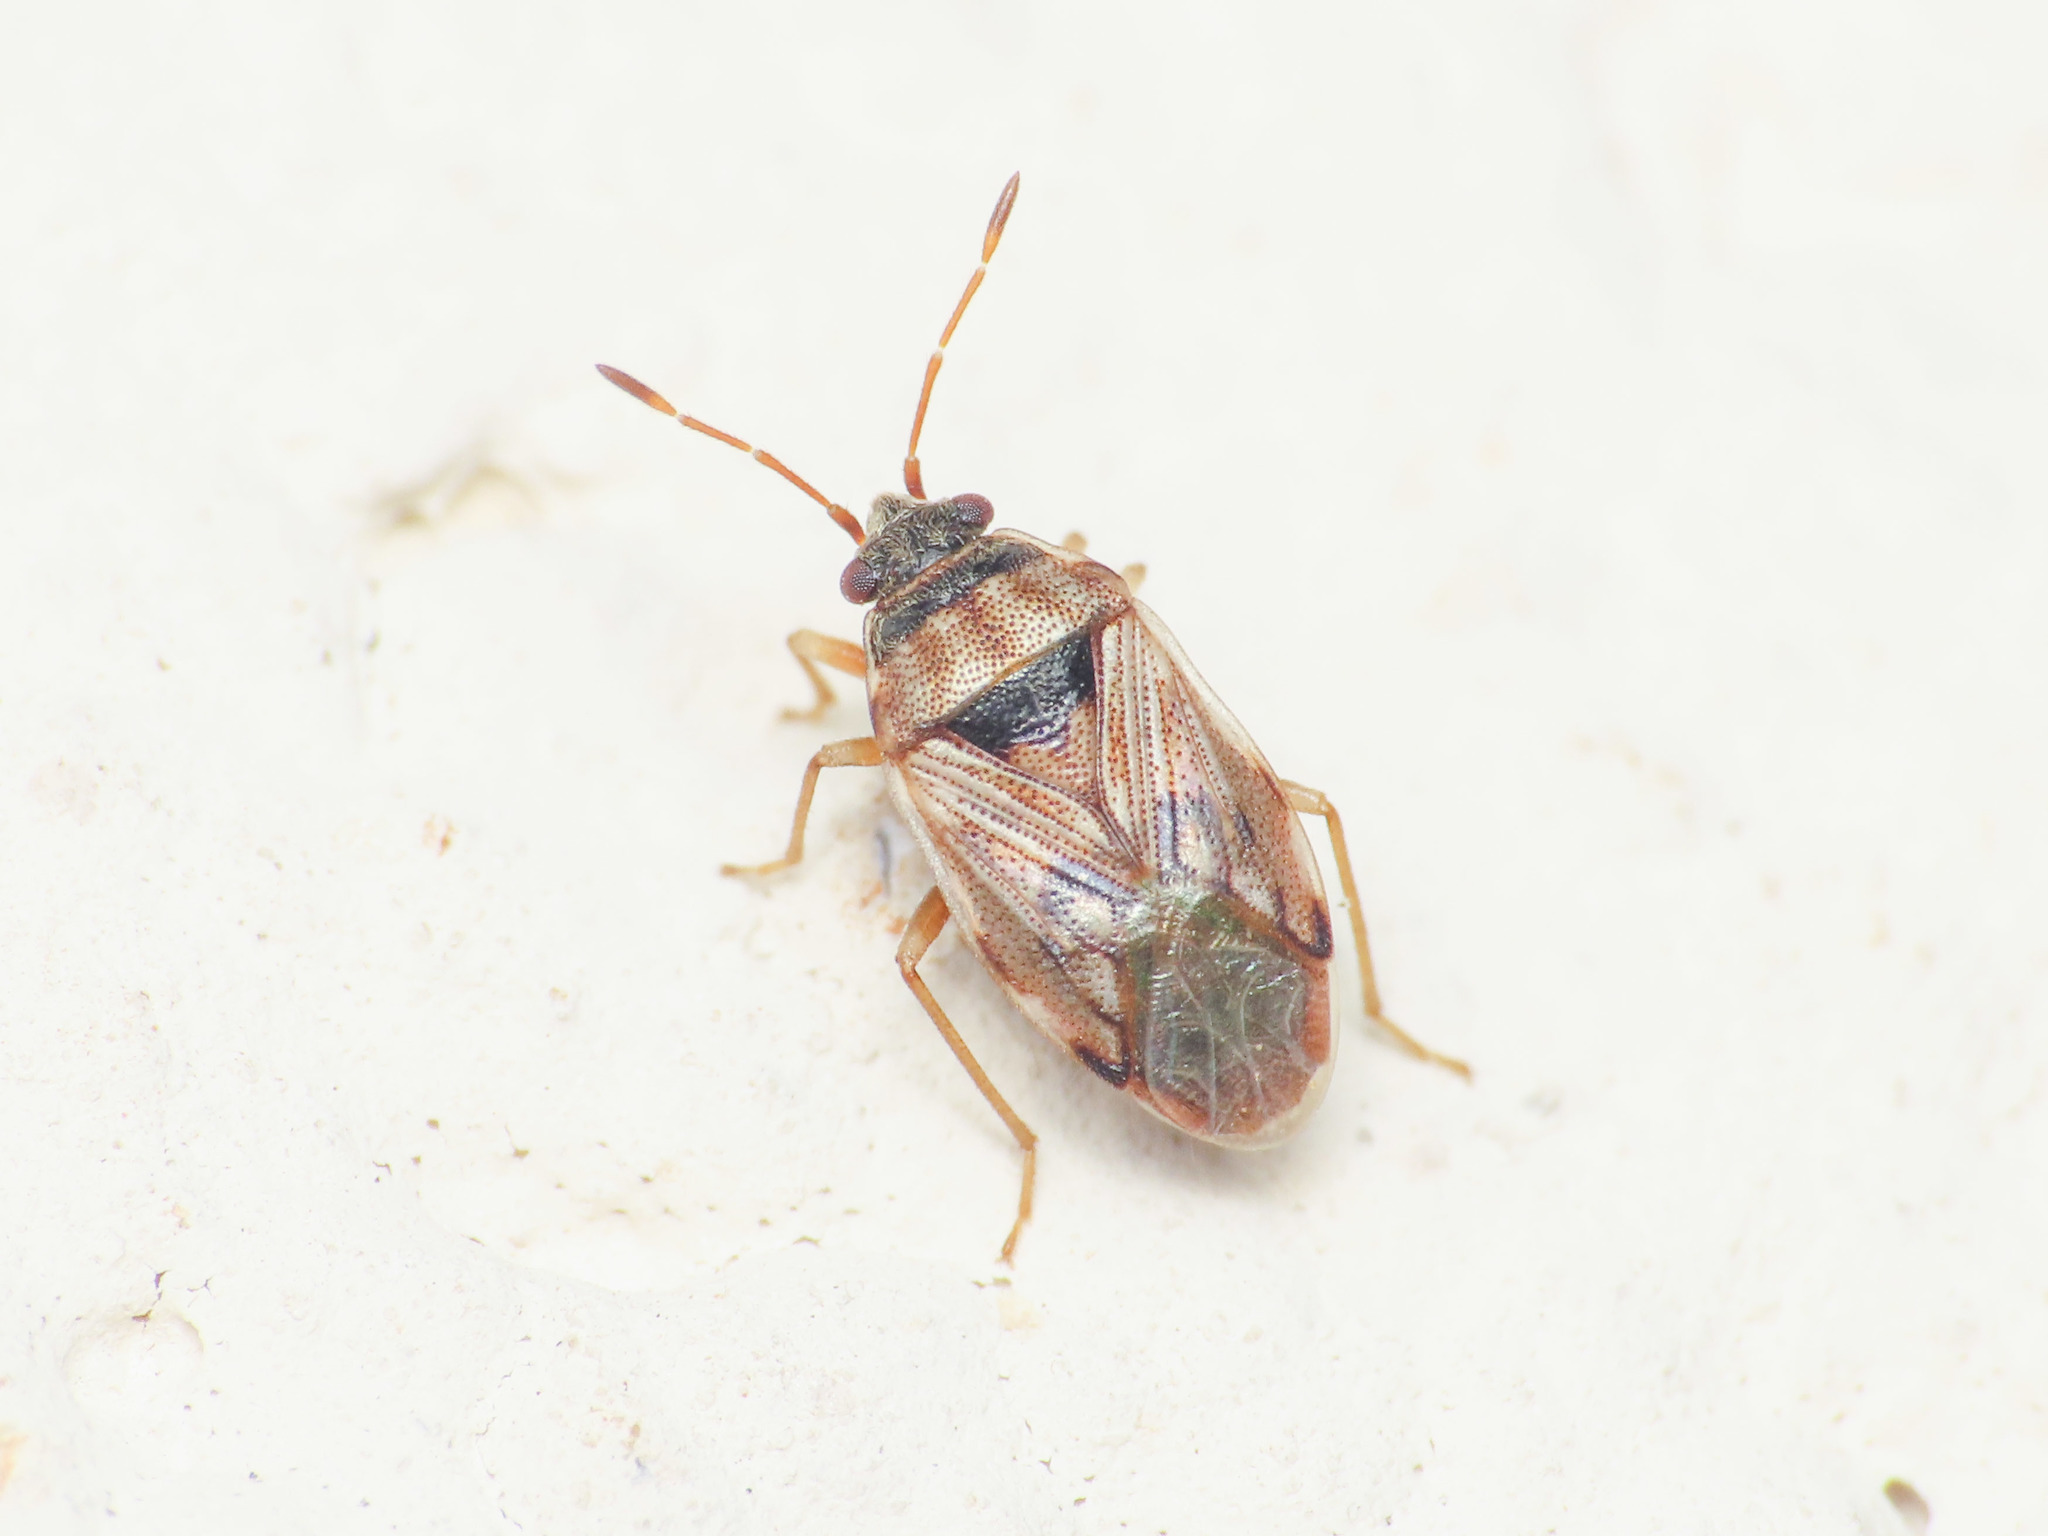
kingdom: Animalia
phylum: Arthropoda
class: Insecta
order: Hemiptera
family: Rhyparochromidae
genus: Hyalochilus
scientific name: Hyalochilus ovatulus
